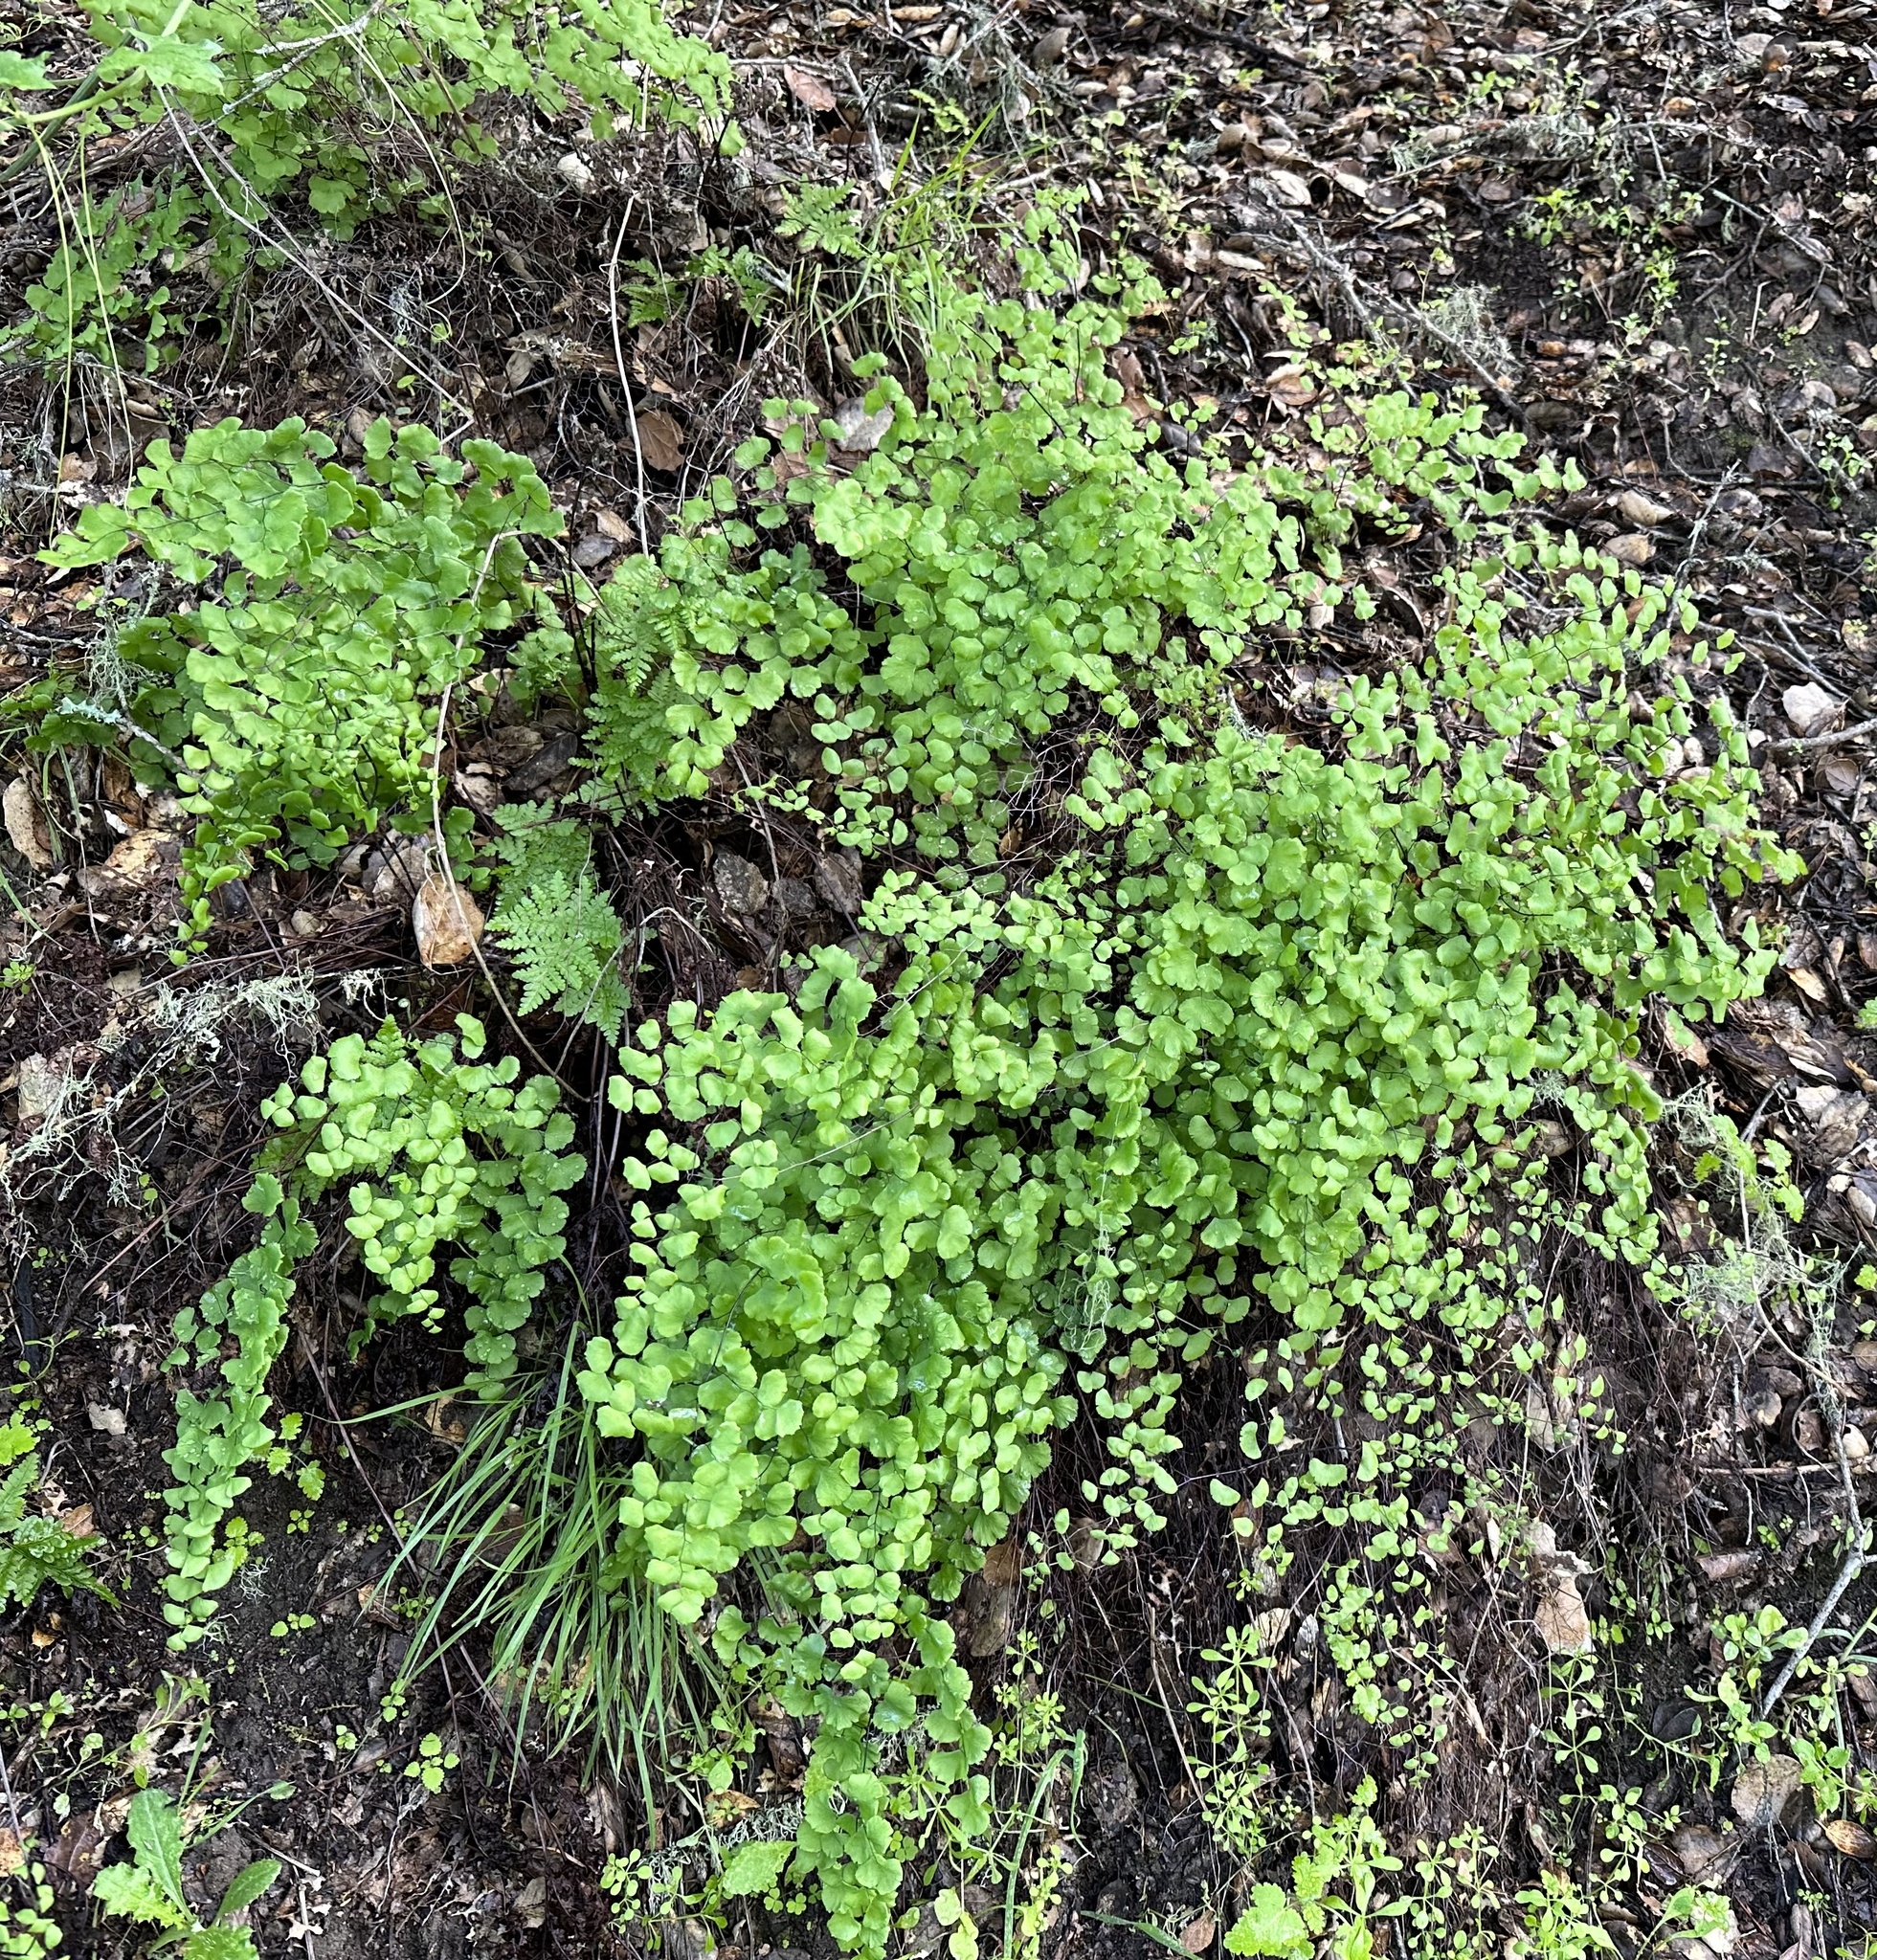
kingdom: Plantae
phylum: Tracheophyta
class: Polypodiopsida
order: Polypodiales
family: Pteridaceae
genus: Adiantum
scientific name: Adiantum jordanii
